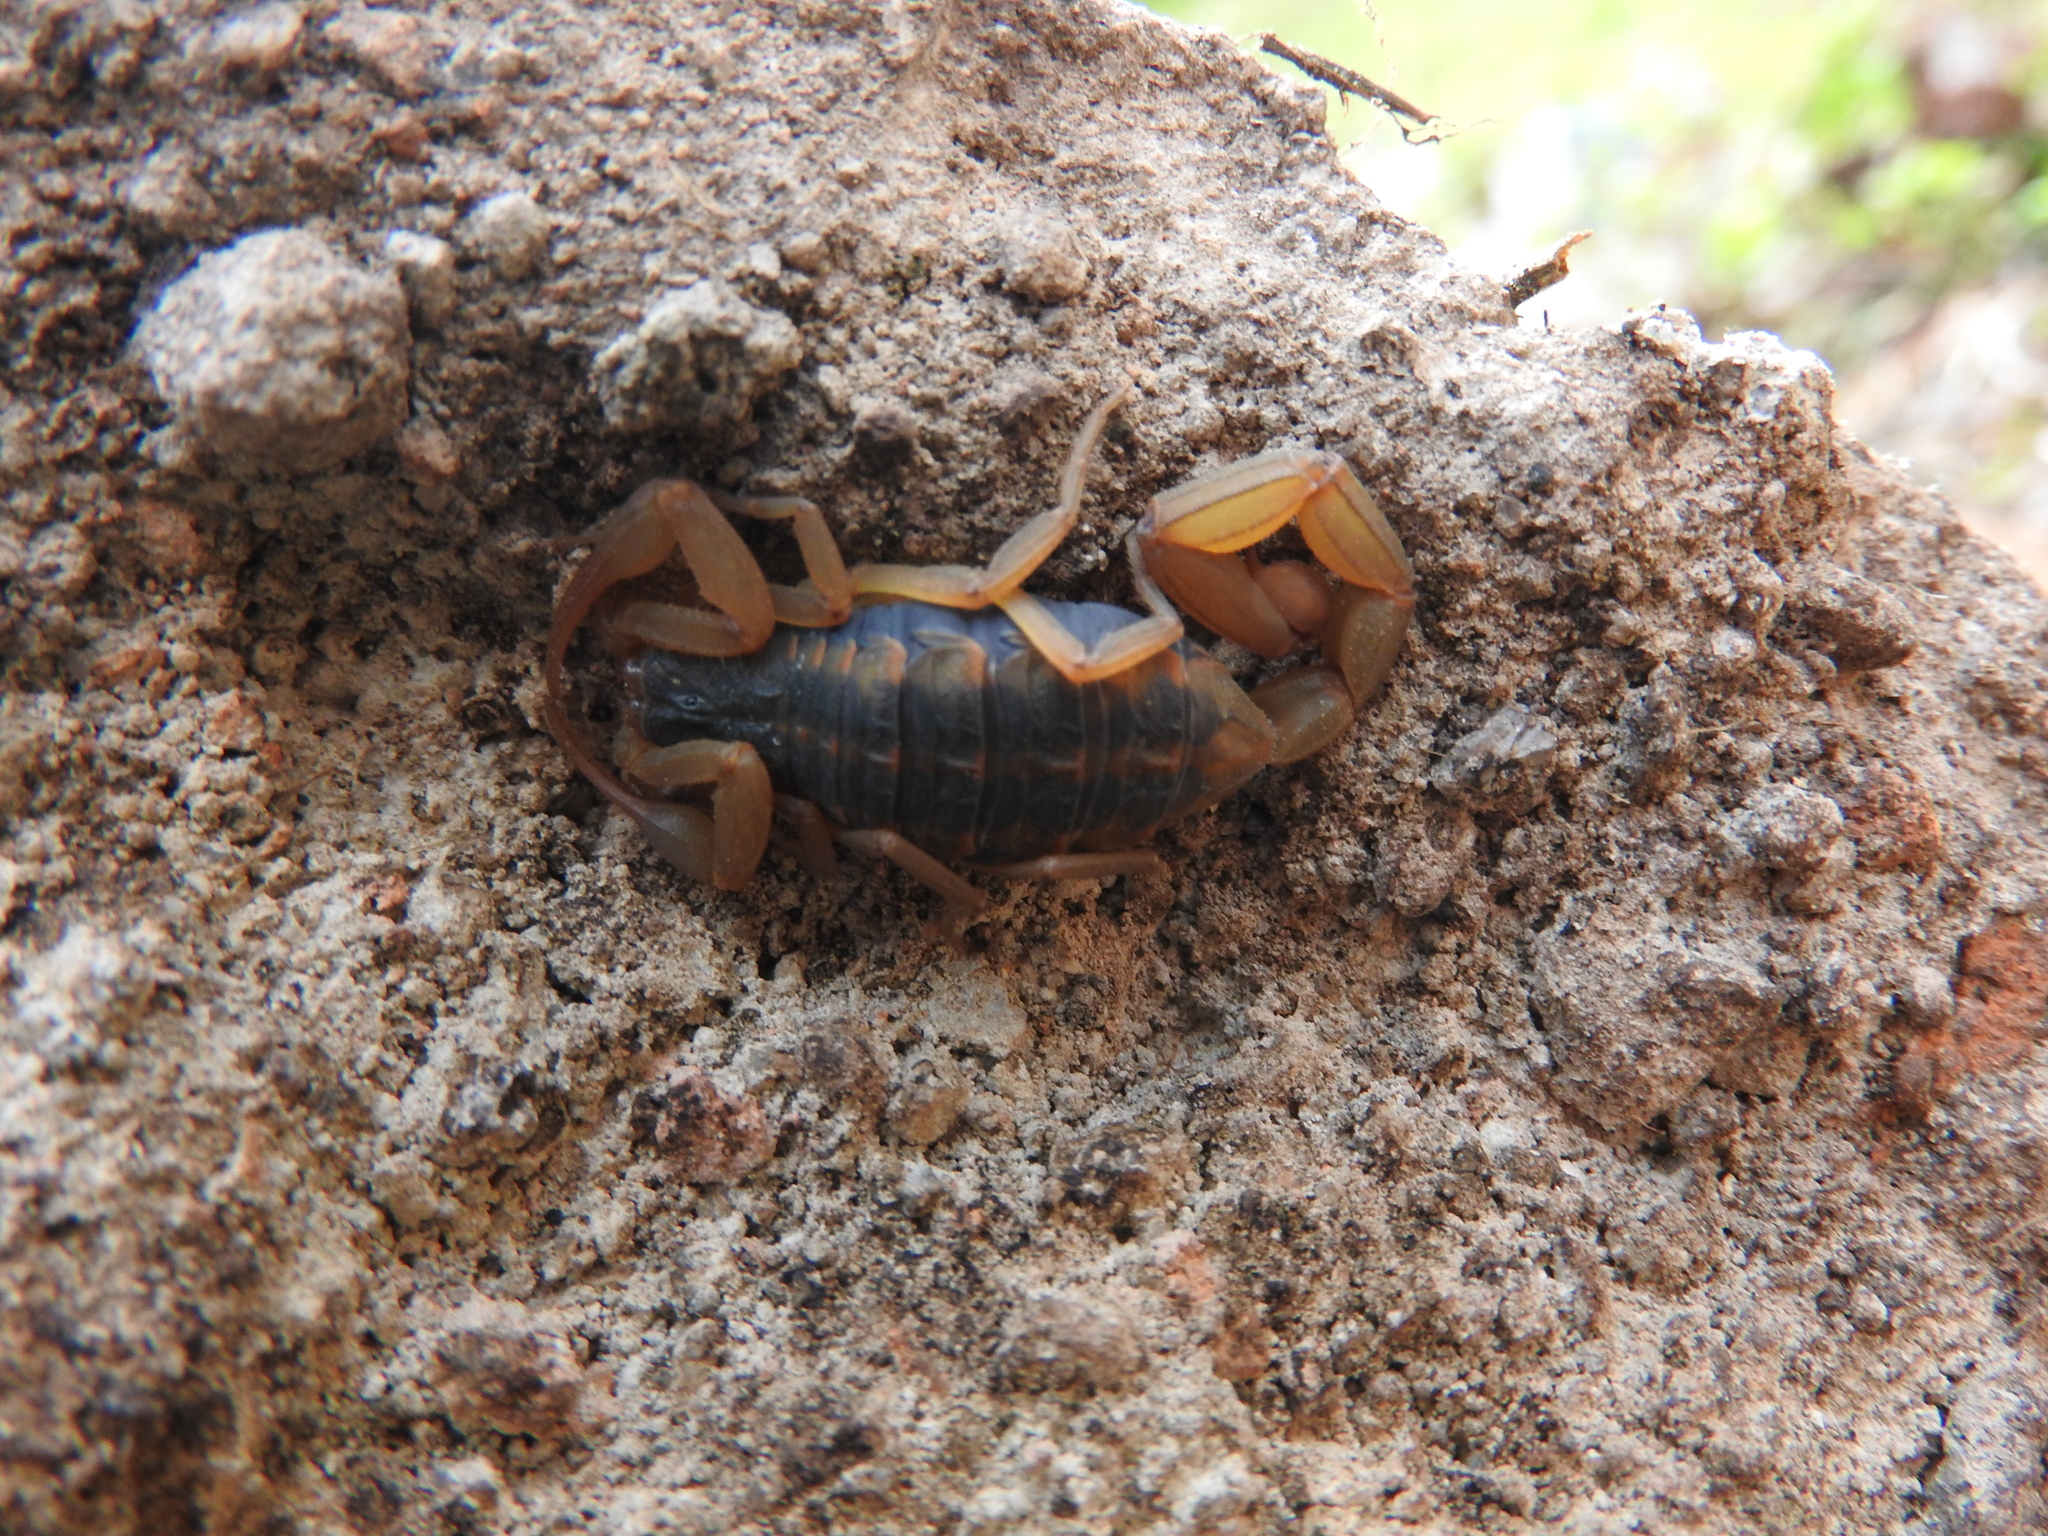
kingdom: Animalia
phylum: Arthropoda
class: Arachnida
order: Scorpiones
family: Buthidae
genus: Centruroides
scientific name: Centruroides ornatus
